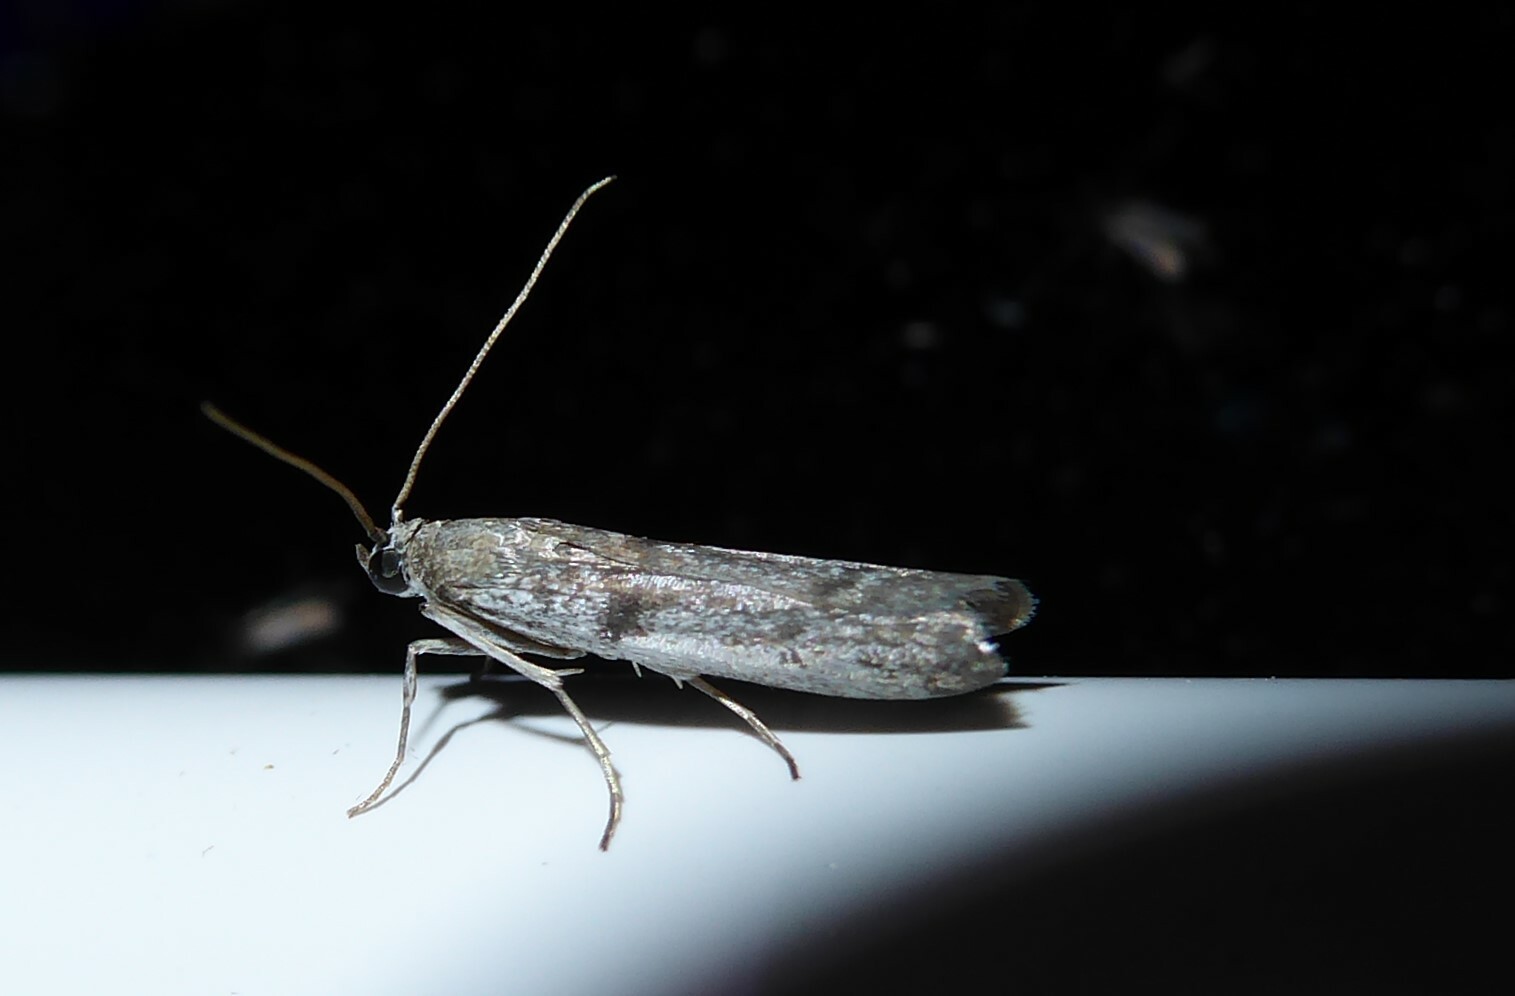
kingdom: Animalia
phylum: Arthropoda
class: Insecta
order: Lepidoptera
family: Pyralidae
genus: Patagoniodes
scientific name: Patagoniodes farinaria
